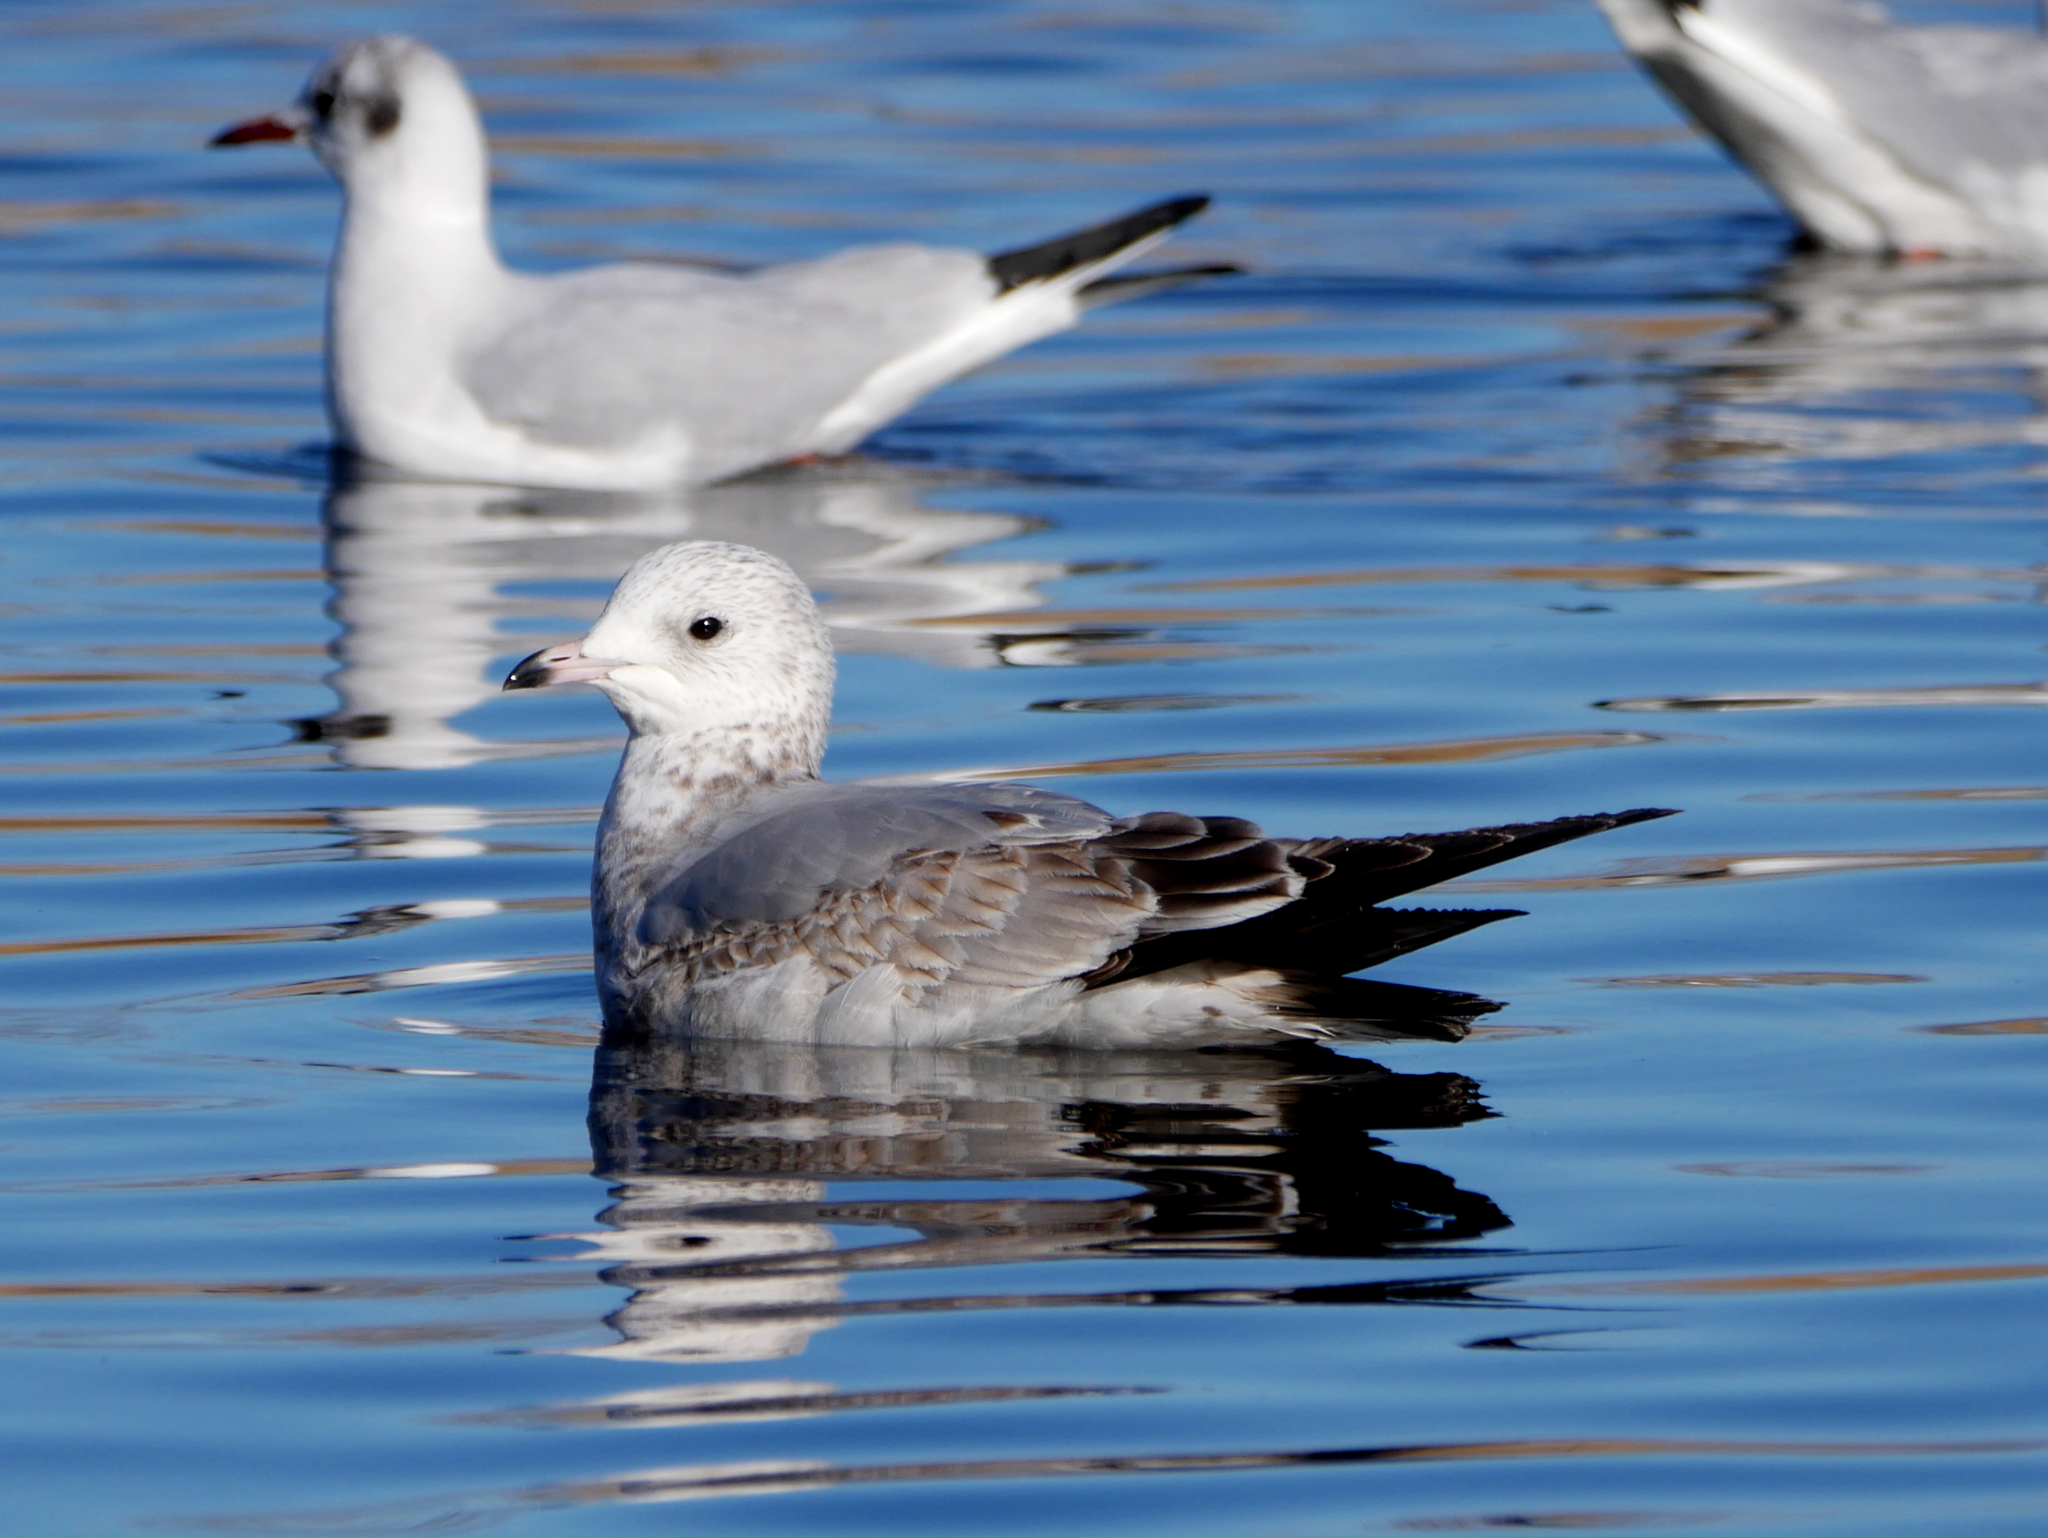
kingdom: Animalia
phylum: Chordata
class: Aves
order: Charadriiformes
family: Laridae
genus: Larus
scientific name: Larus canus
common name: Mew gull
